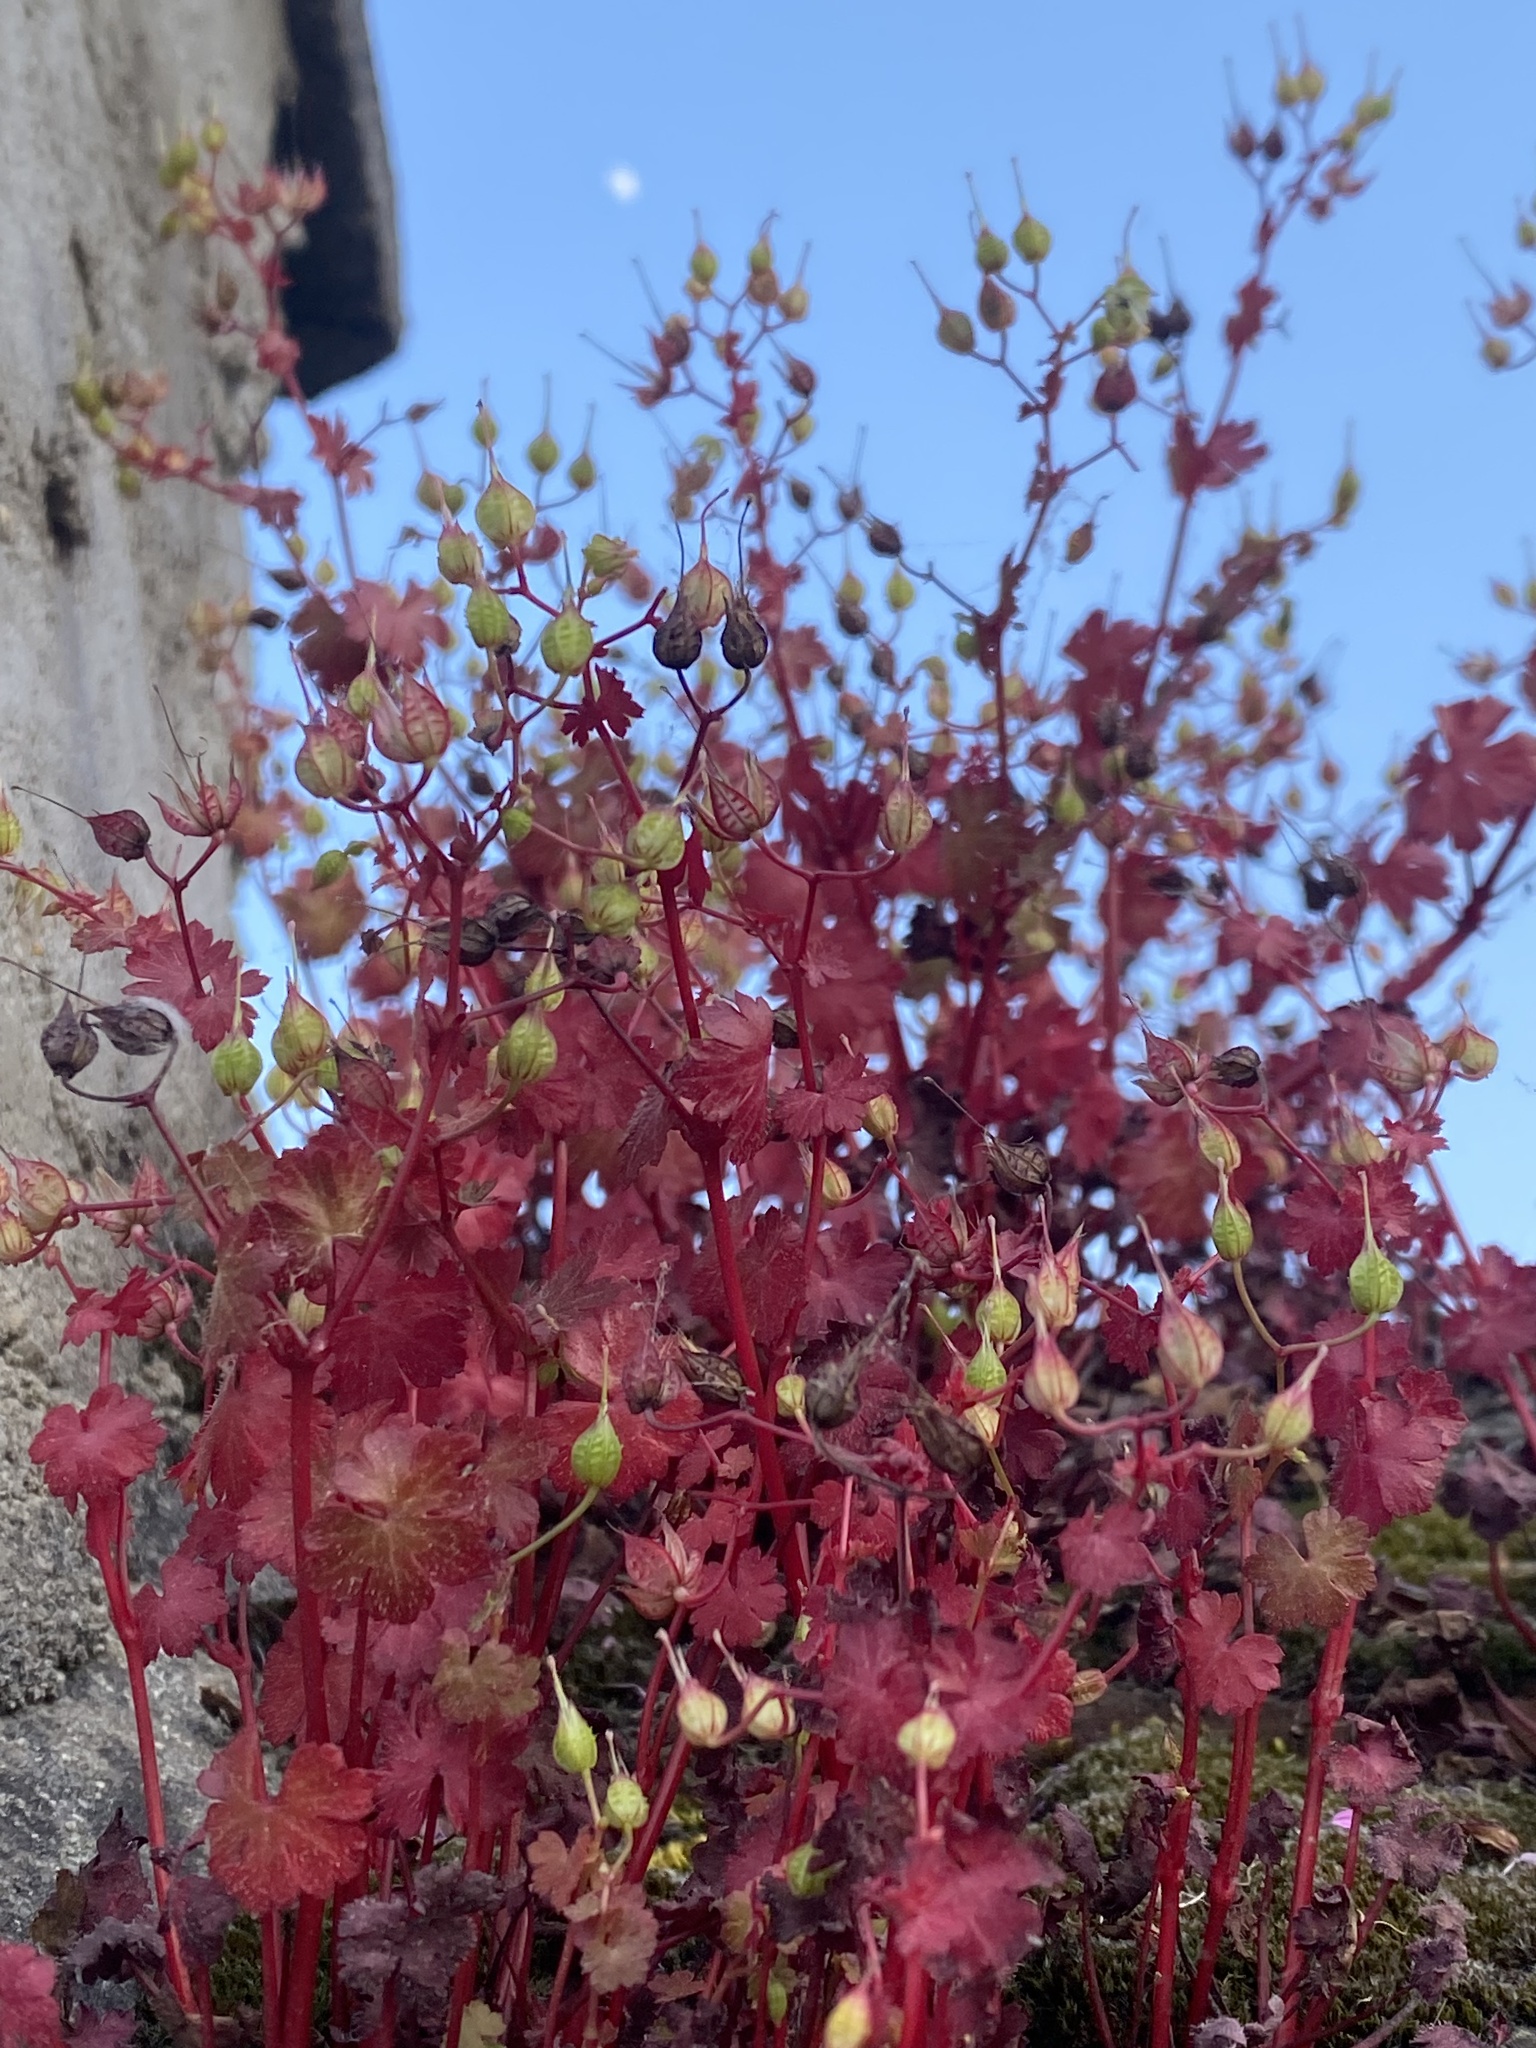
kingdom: Plantae
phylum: Tracheophyta
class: Magnoliopsida
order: Geraniales
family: Geraniaceae
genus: Geranium
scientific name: Geranium lucidum
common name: Shining crane's-bill
